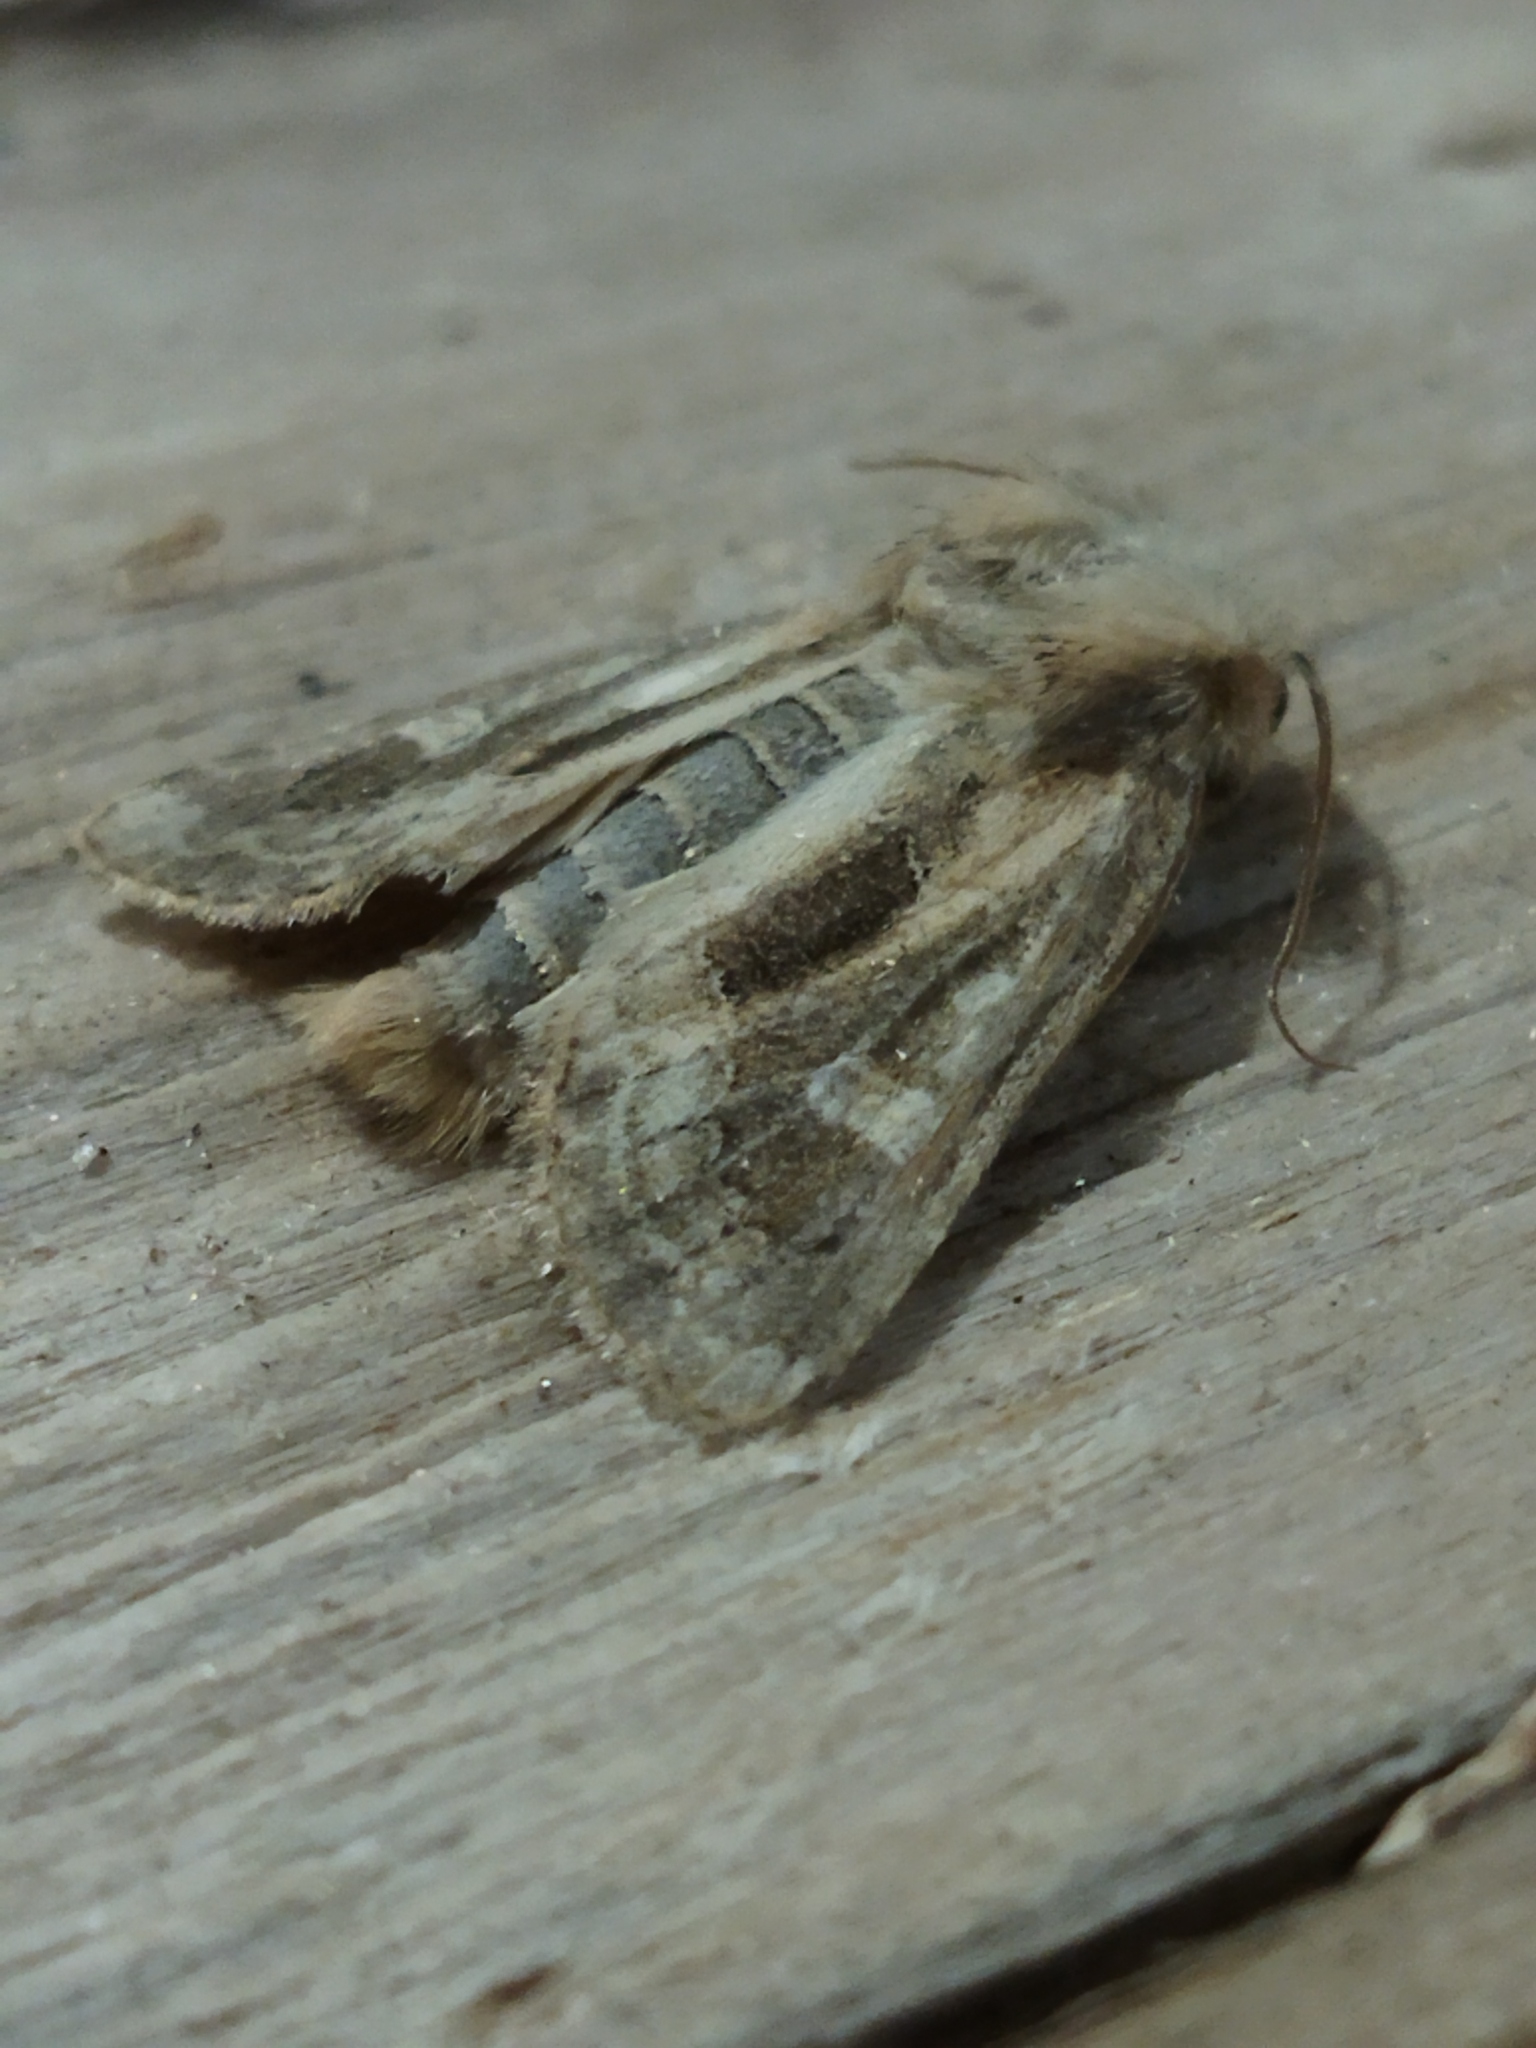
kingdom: Animalia
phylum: Arthropoda
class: Insecta
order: Lepidoptera
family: Noctuidae
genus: Luperina
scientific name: Luperina dumerilii
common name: Dumeril's rustic
